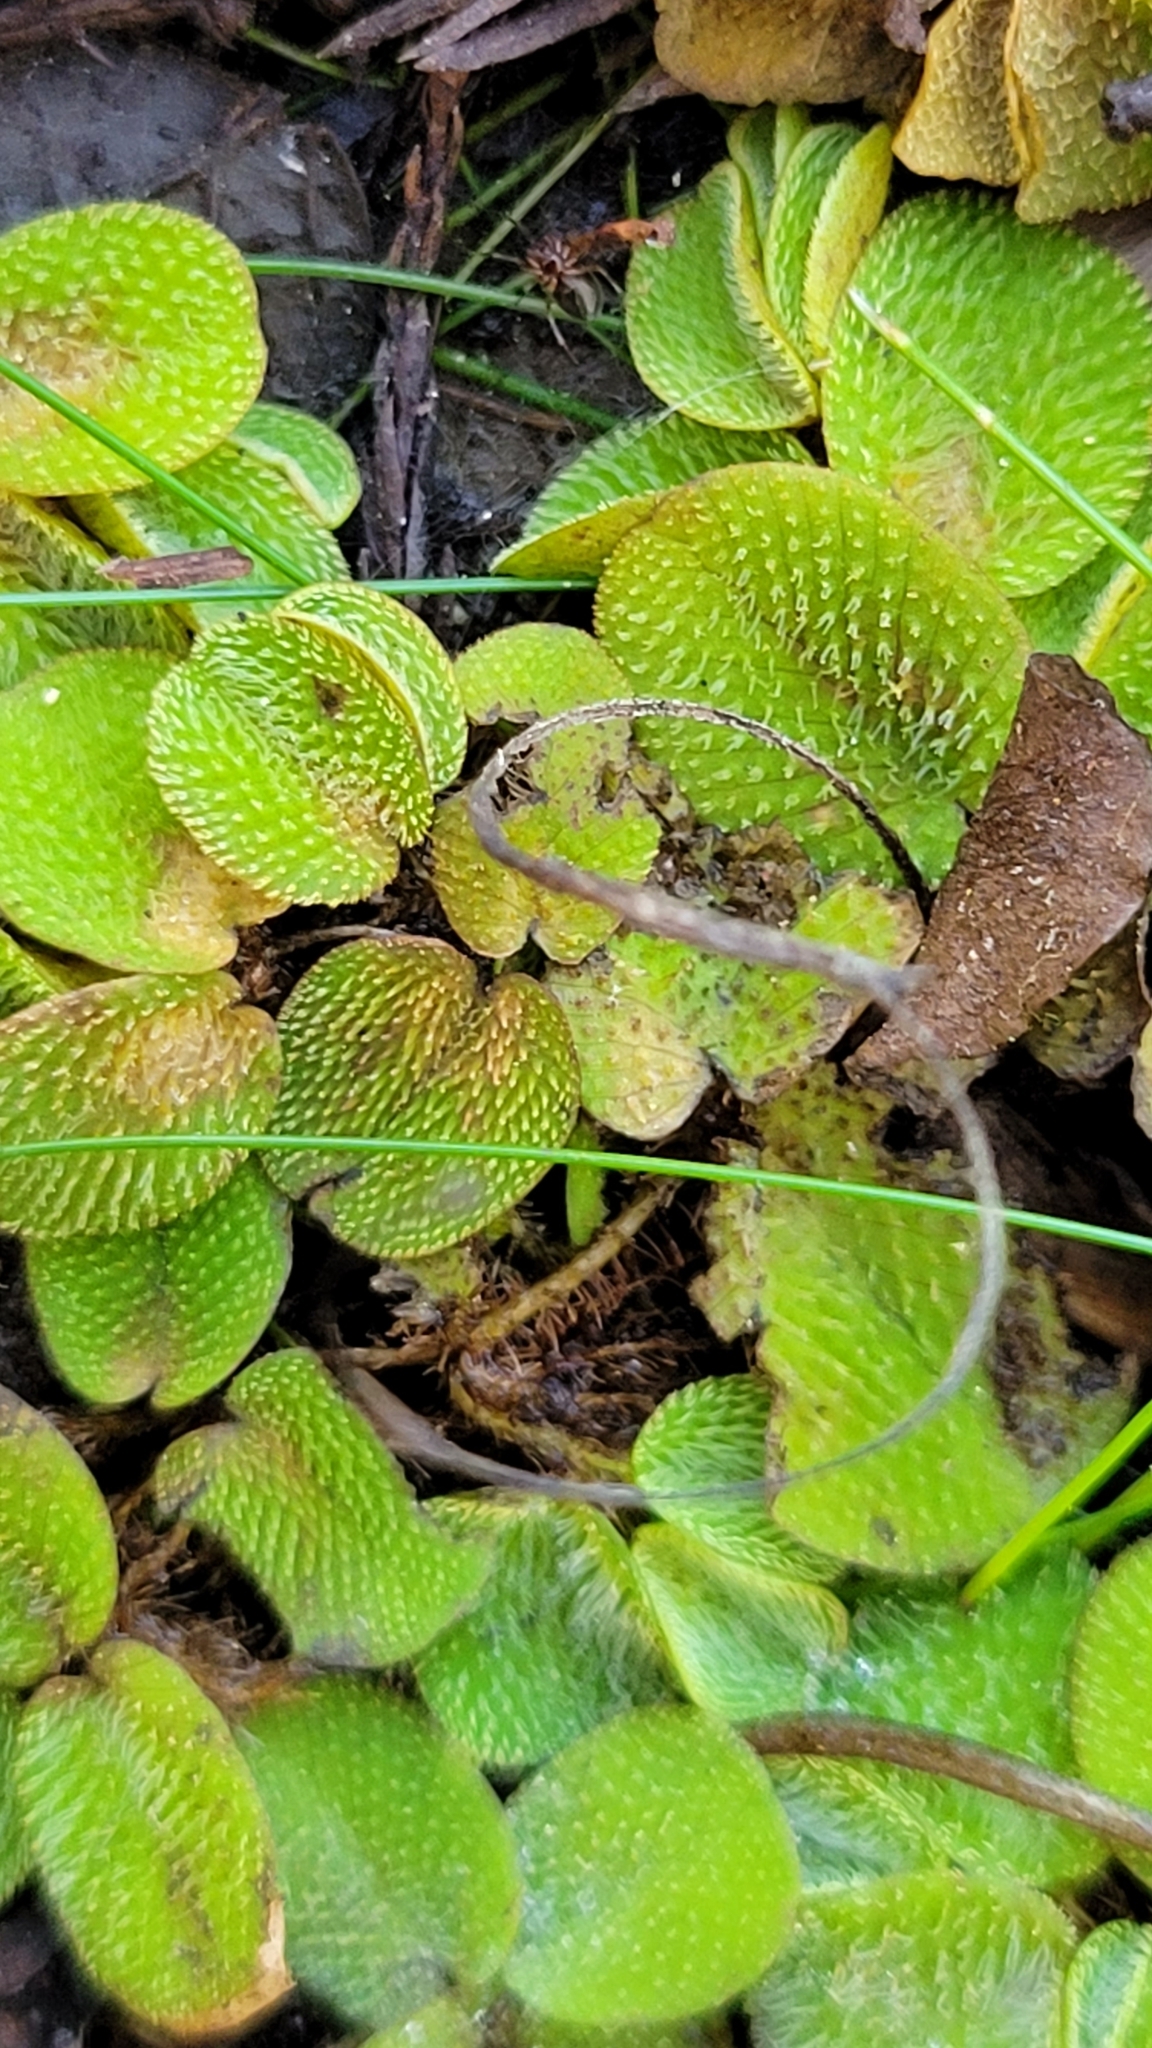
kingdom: Plantae
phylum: Tracheophyta
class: Polypodiopsida
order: Salviniales
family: Salviniaceae
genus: Salvinia
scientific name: Salvinia minima
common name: Water spangles
